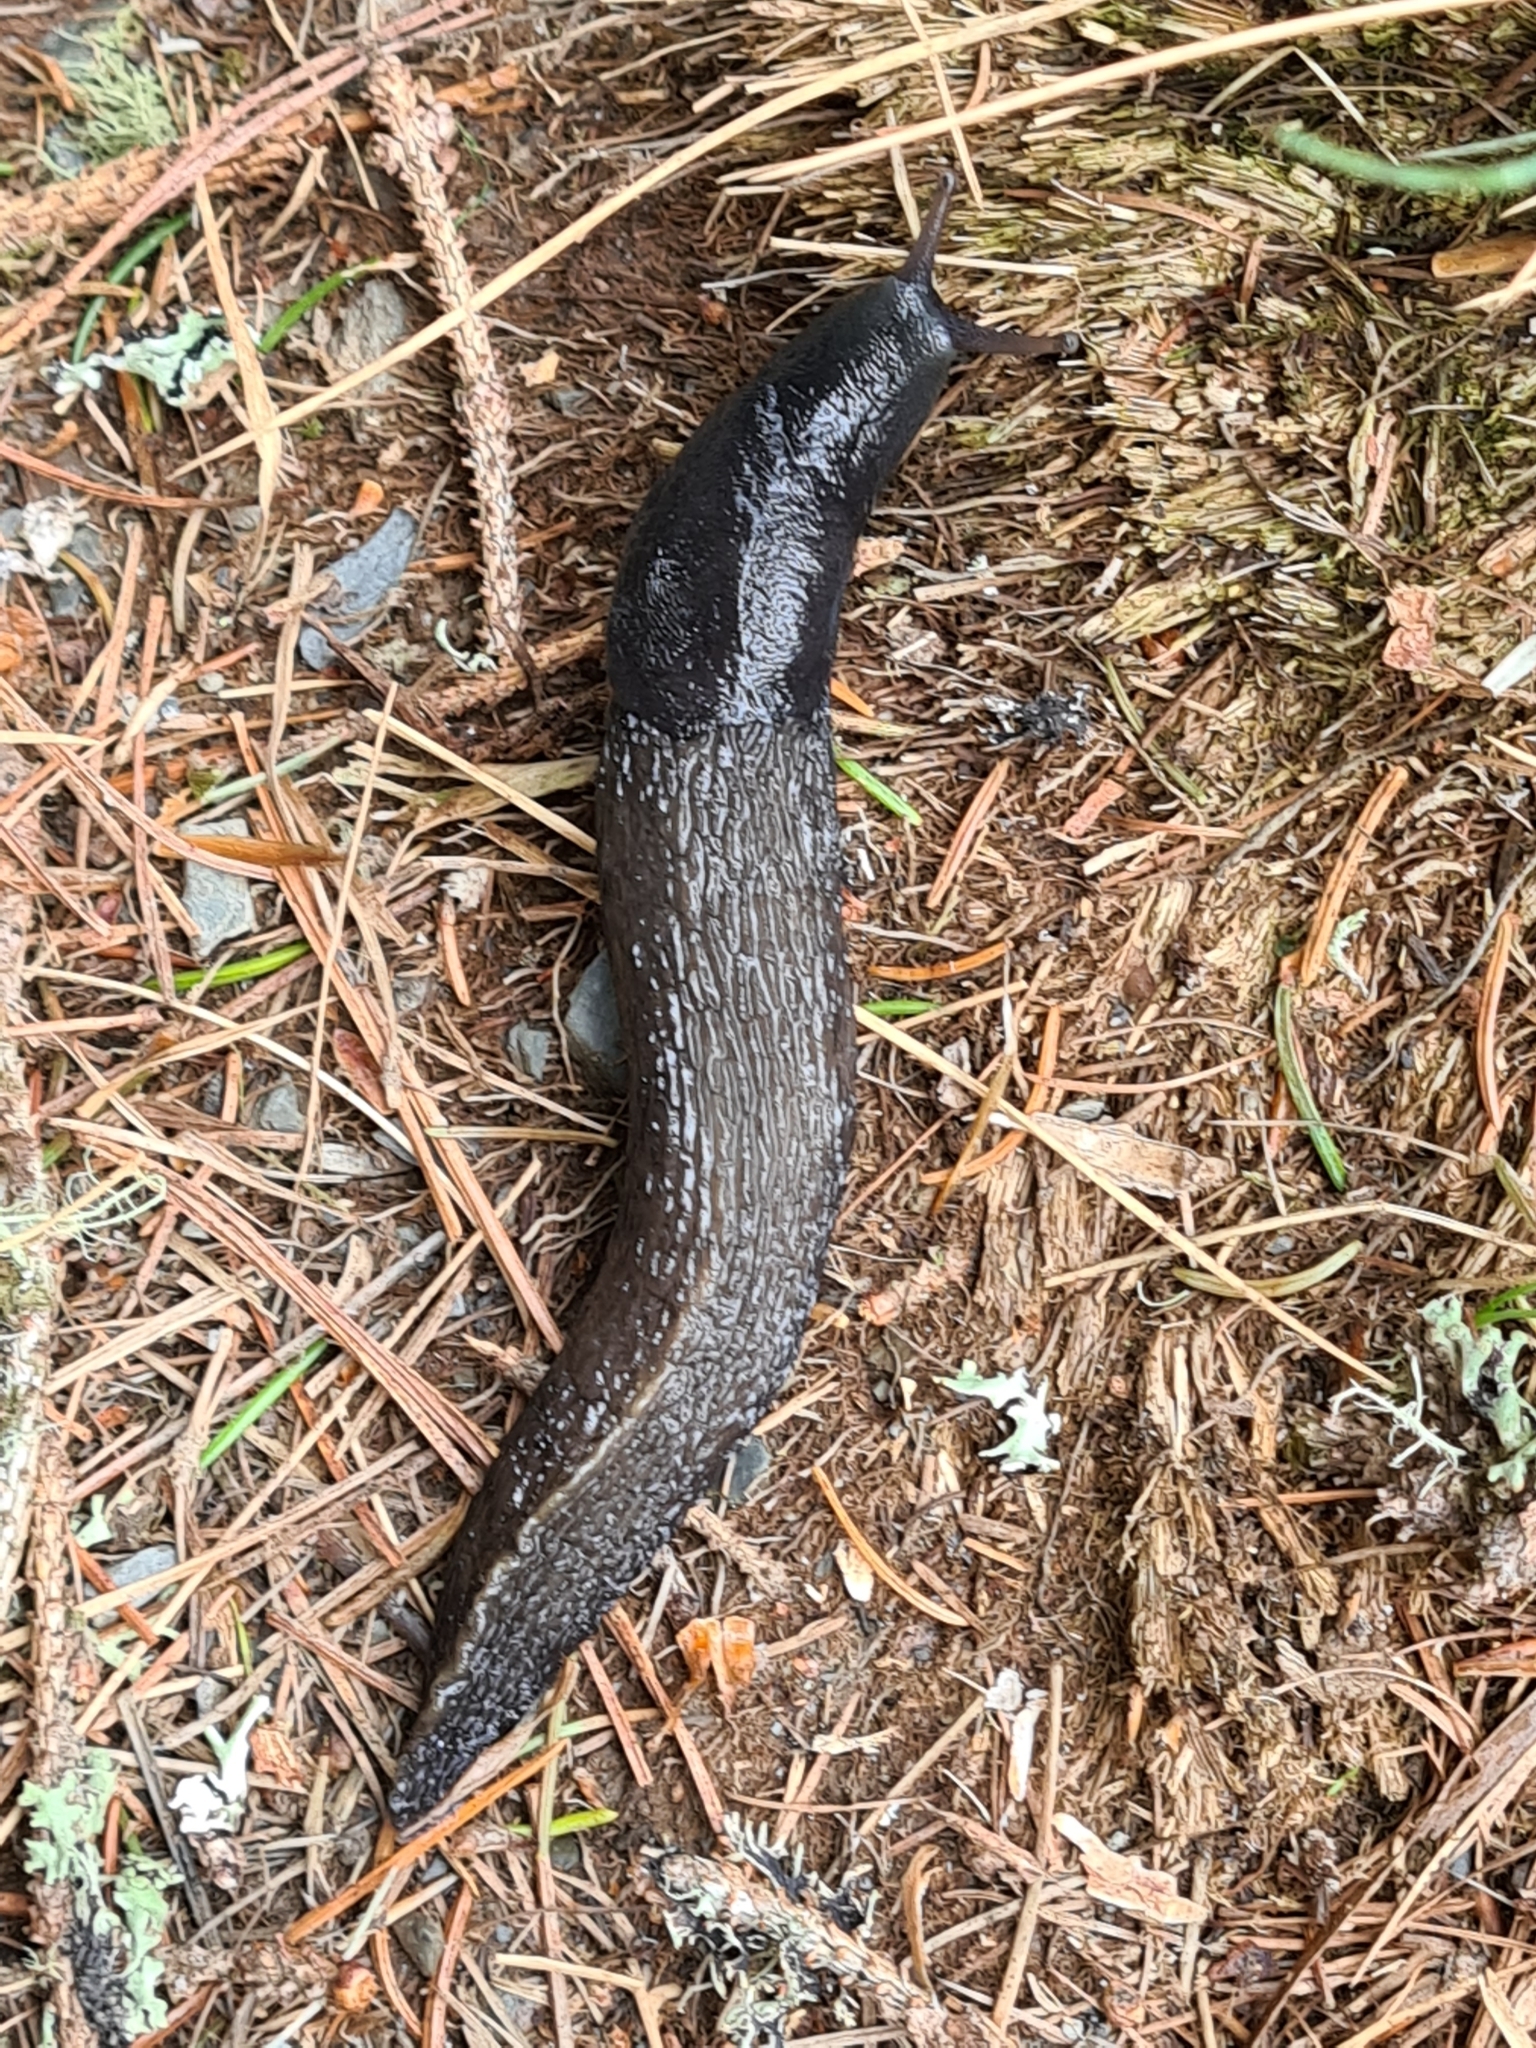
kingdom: Animalia
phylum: Mollusca
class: Gastropoda
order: Stylommatophora
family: Limacidae
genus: Limax
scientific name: Limax cinereoniger
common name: Ash-black slug
